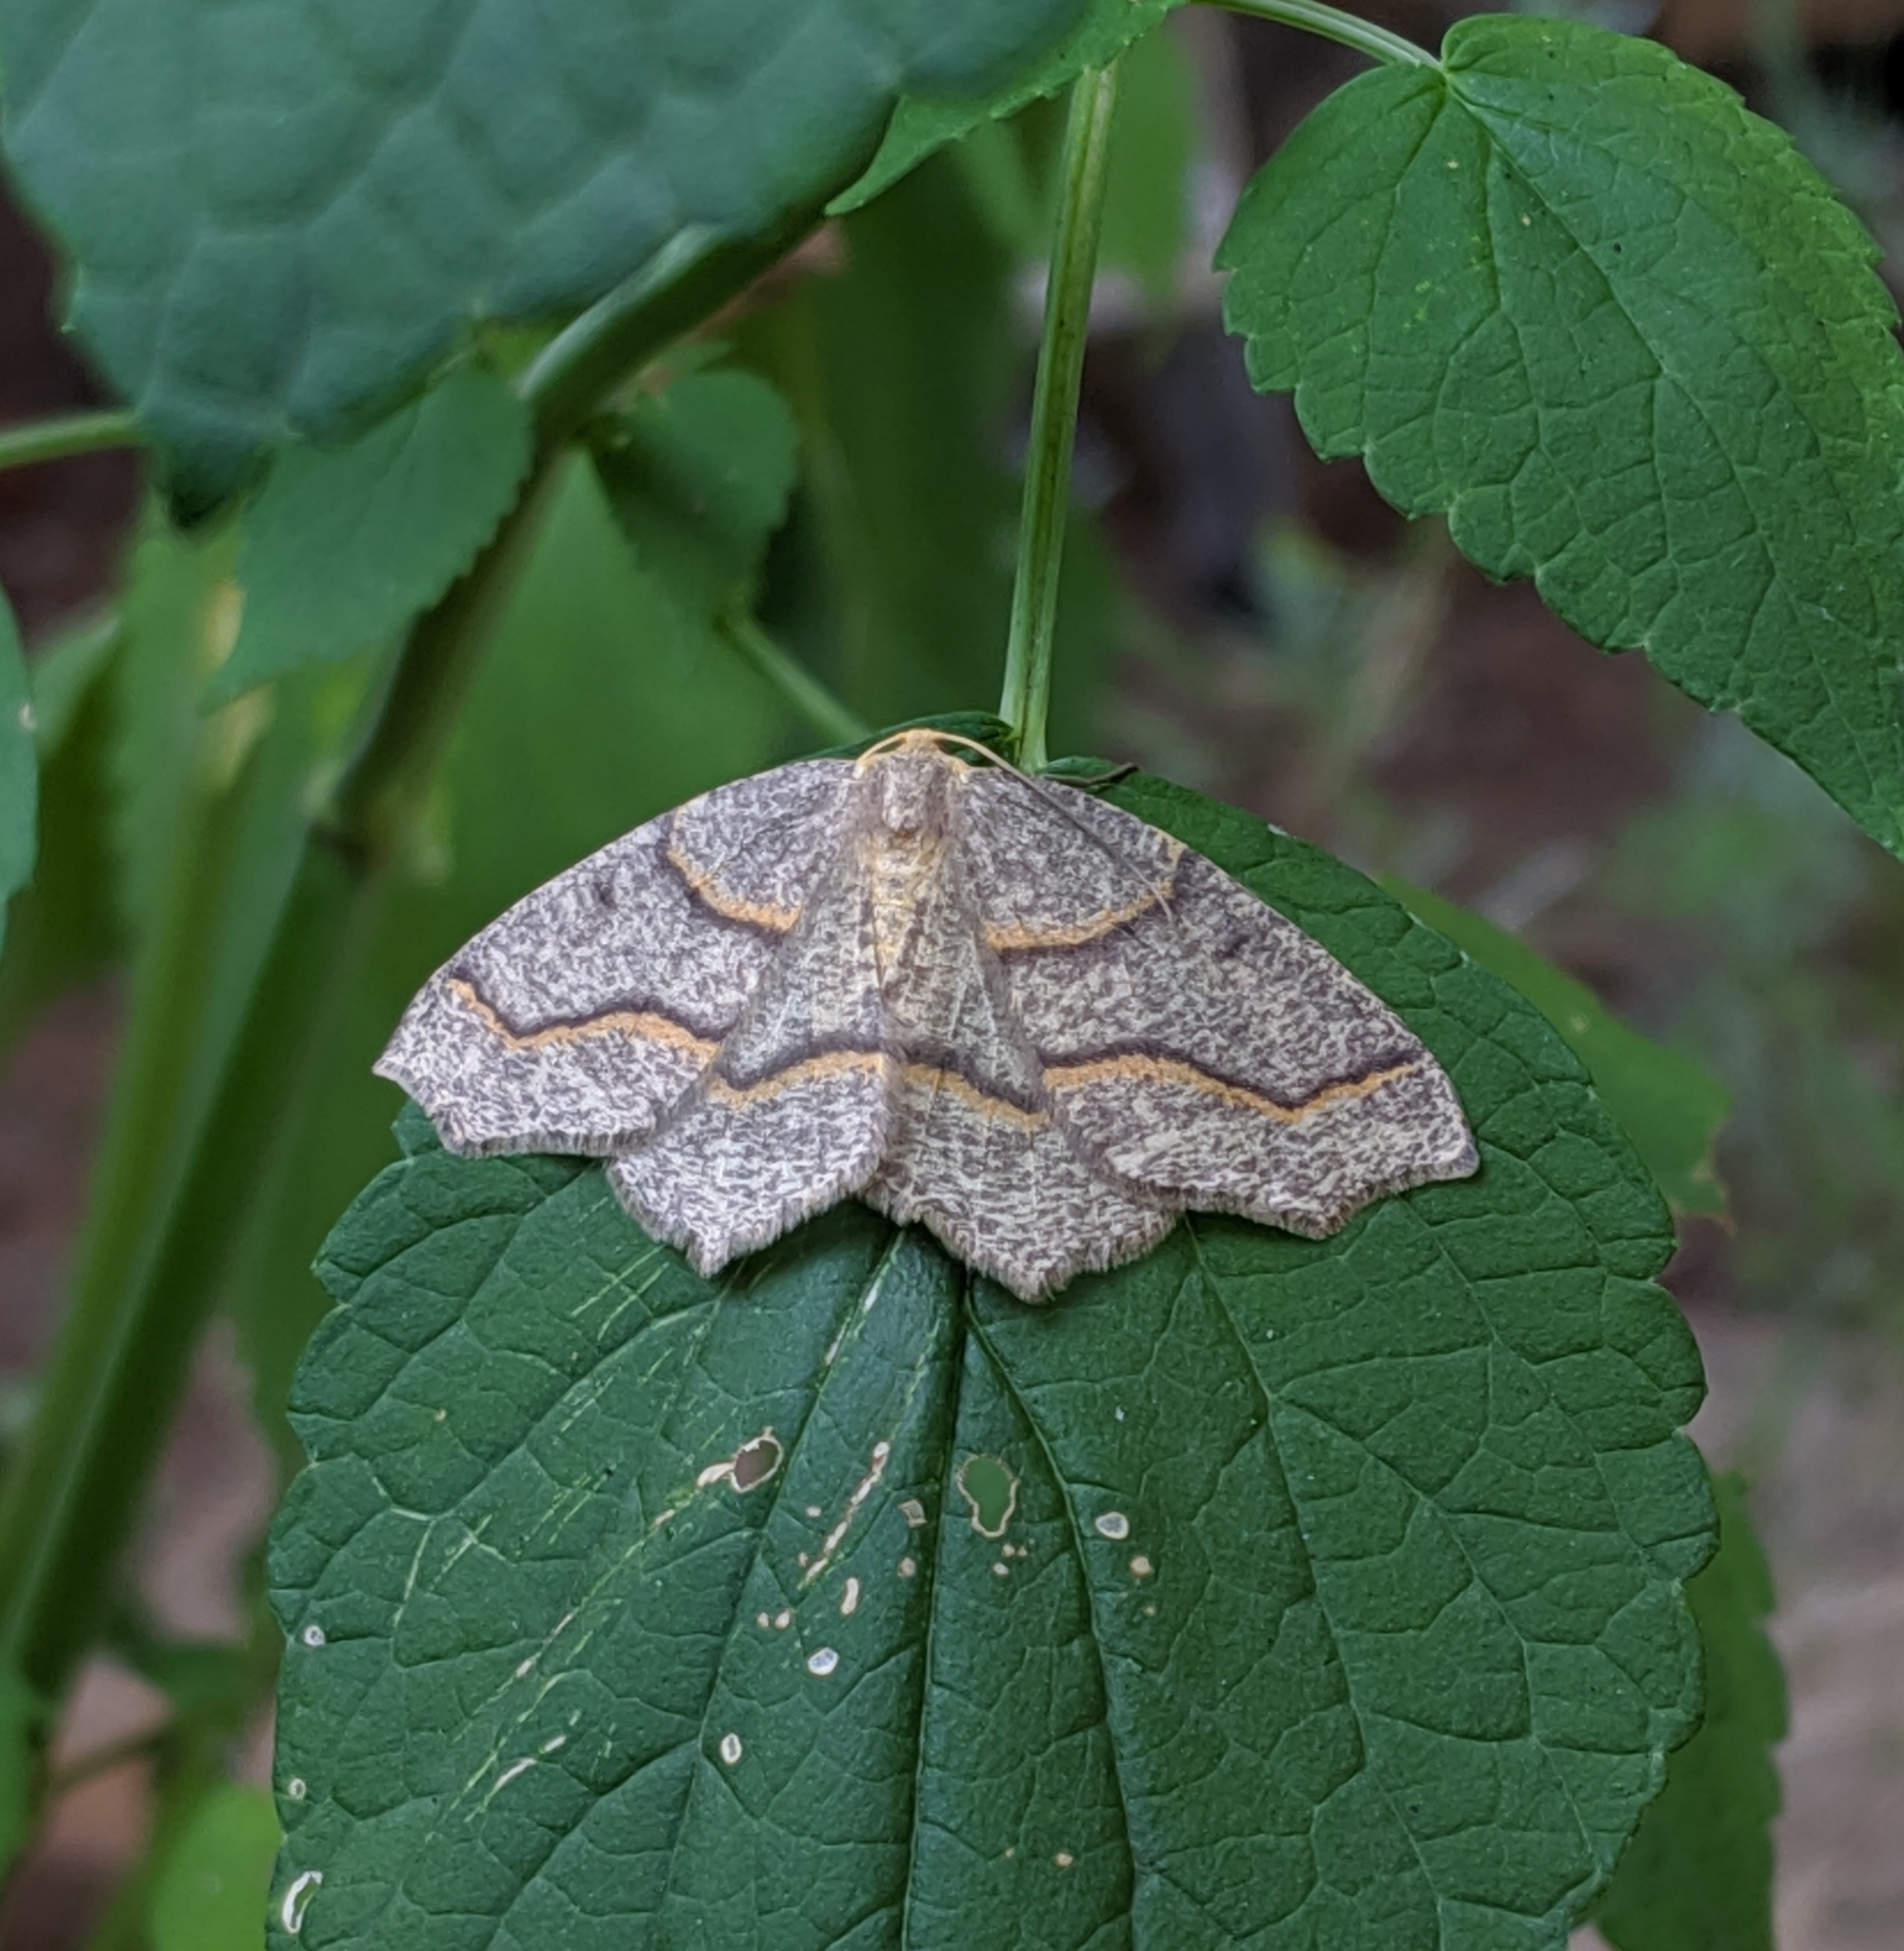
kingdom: Animalia
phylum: Arthropoda
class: Insecta
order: Lepidoptera
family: Geometridae
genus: Lambdina
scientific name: Lambdina fiscellaria
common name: Hemlock looper
